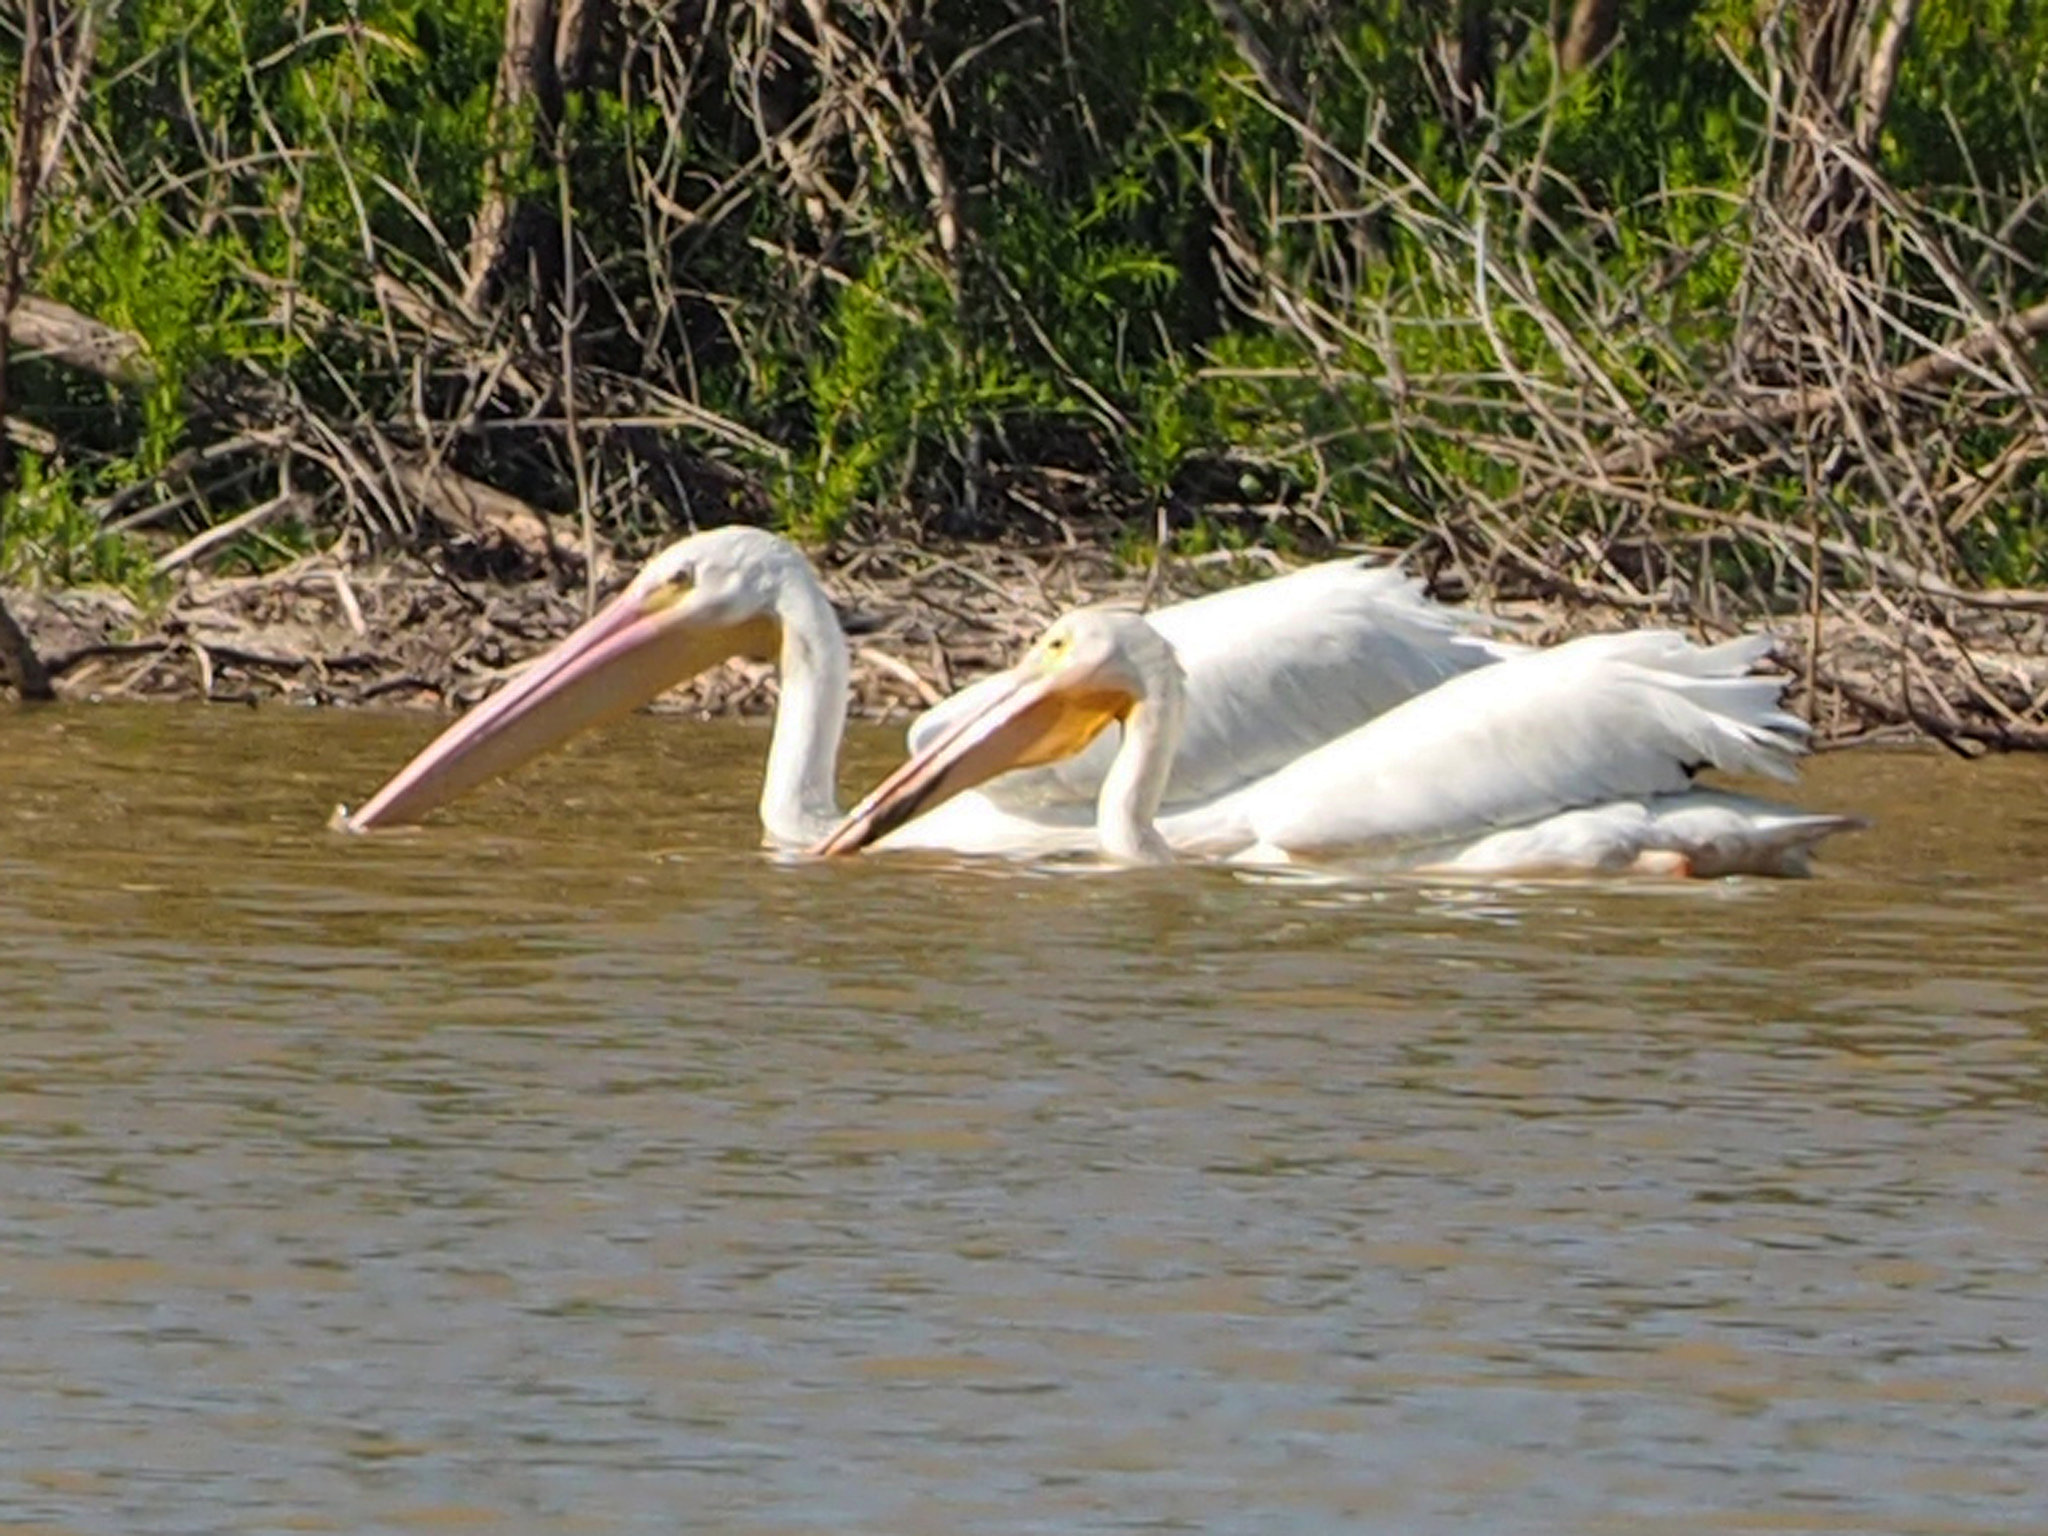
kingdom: Animalia
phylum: Chordata
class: Aves
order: Pelecaniformes
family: Pelecanidae
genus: Pelecanus
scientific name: Pelecanus erythrorhynchos
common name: American white pelican
